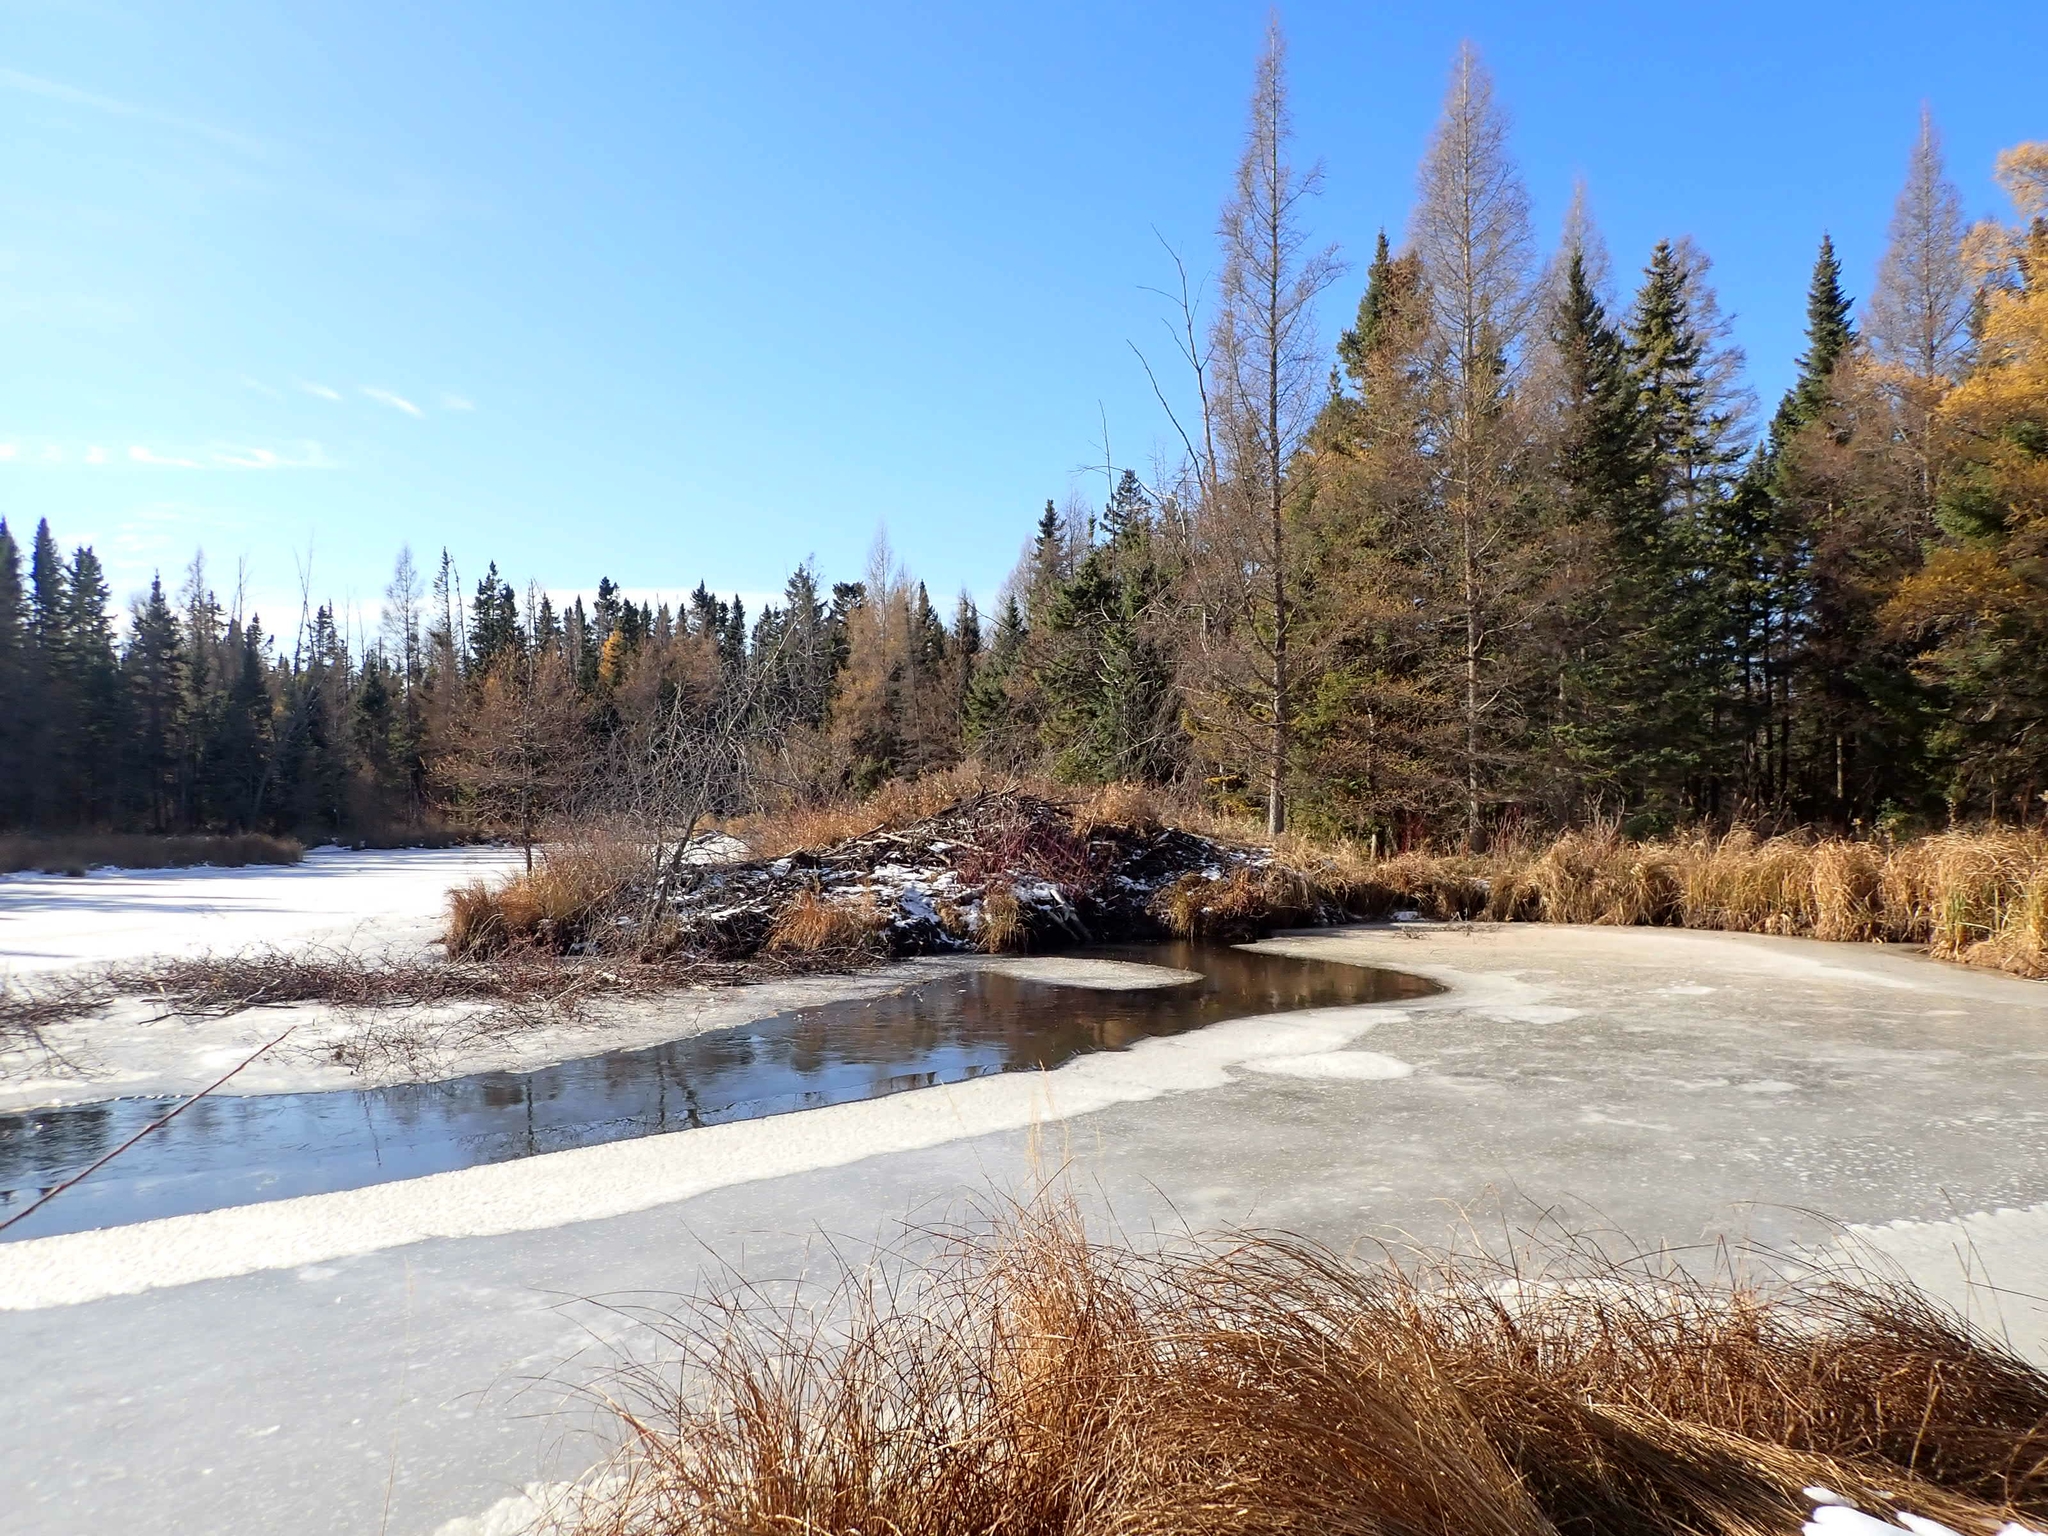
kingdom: Animalia
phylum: Chordata
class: Mammalia
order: Rodentia
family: Castoridae
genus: Castor
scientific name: Castor canadensis
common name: American beaver
